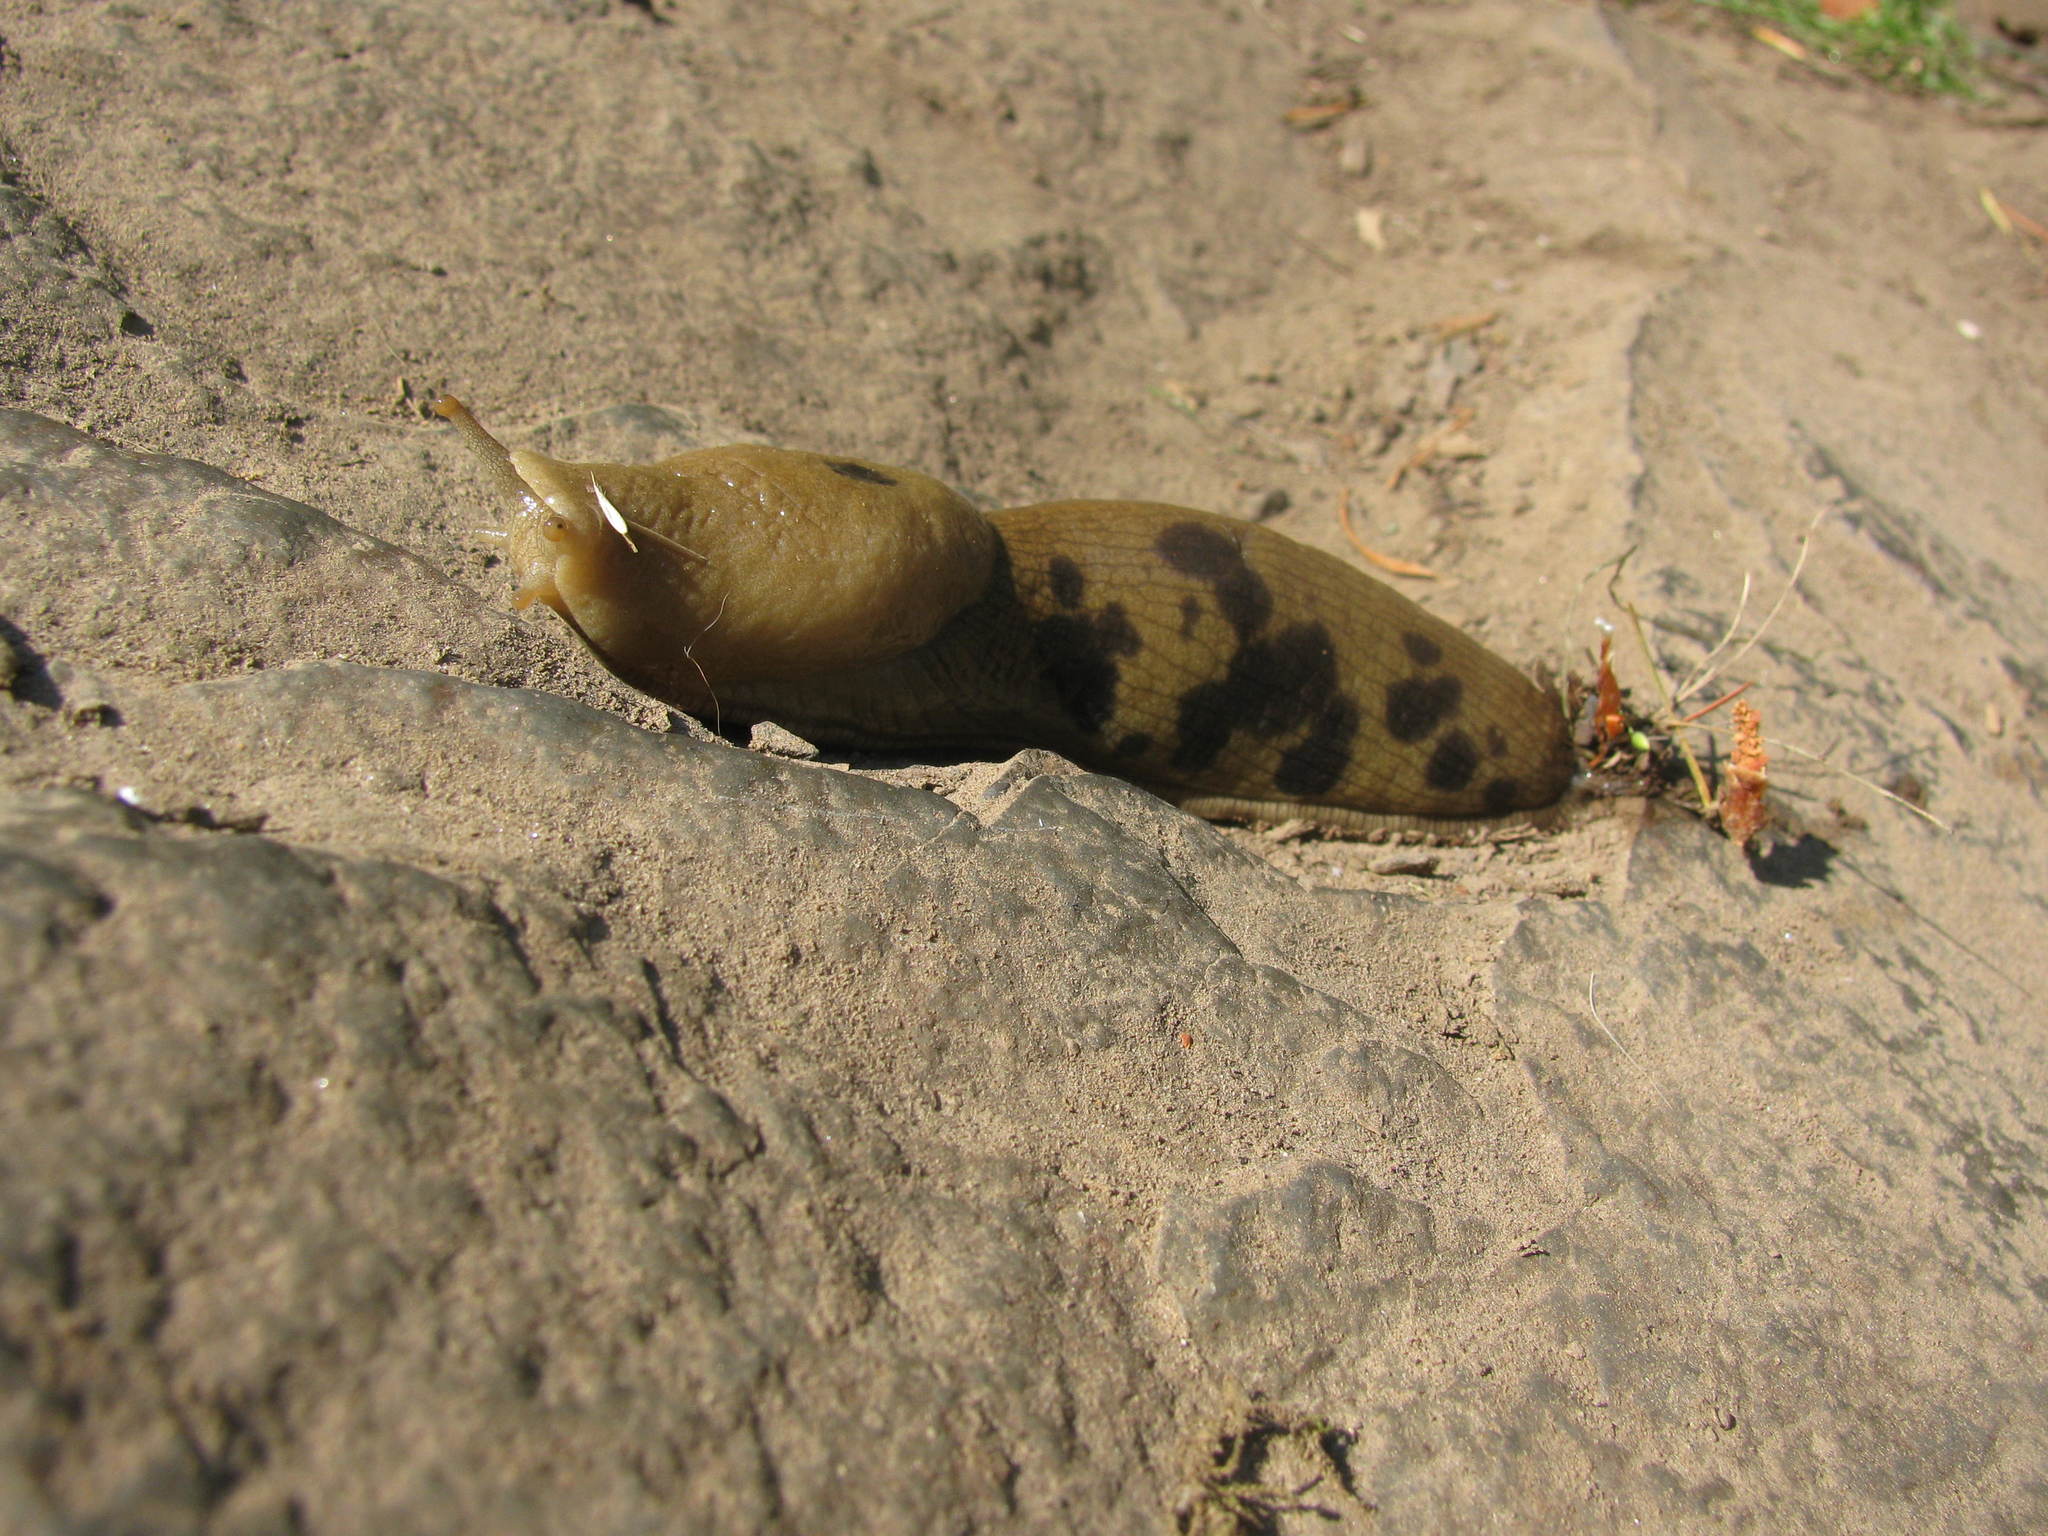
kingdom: Animalia
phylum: Mollusca
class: Gastropoda
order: Stylommatophora
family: Ariolimacidae
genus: Ariolimax
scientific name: Ariolimax columbianus
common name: Pacific banana slug
